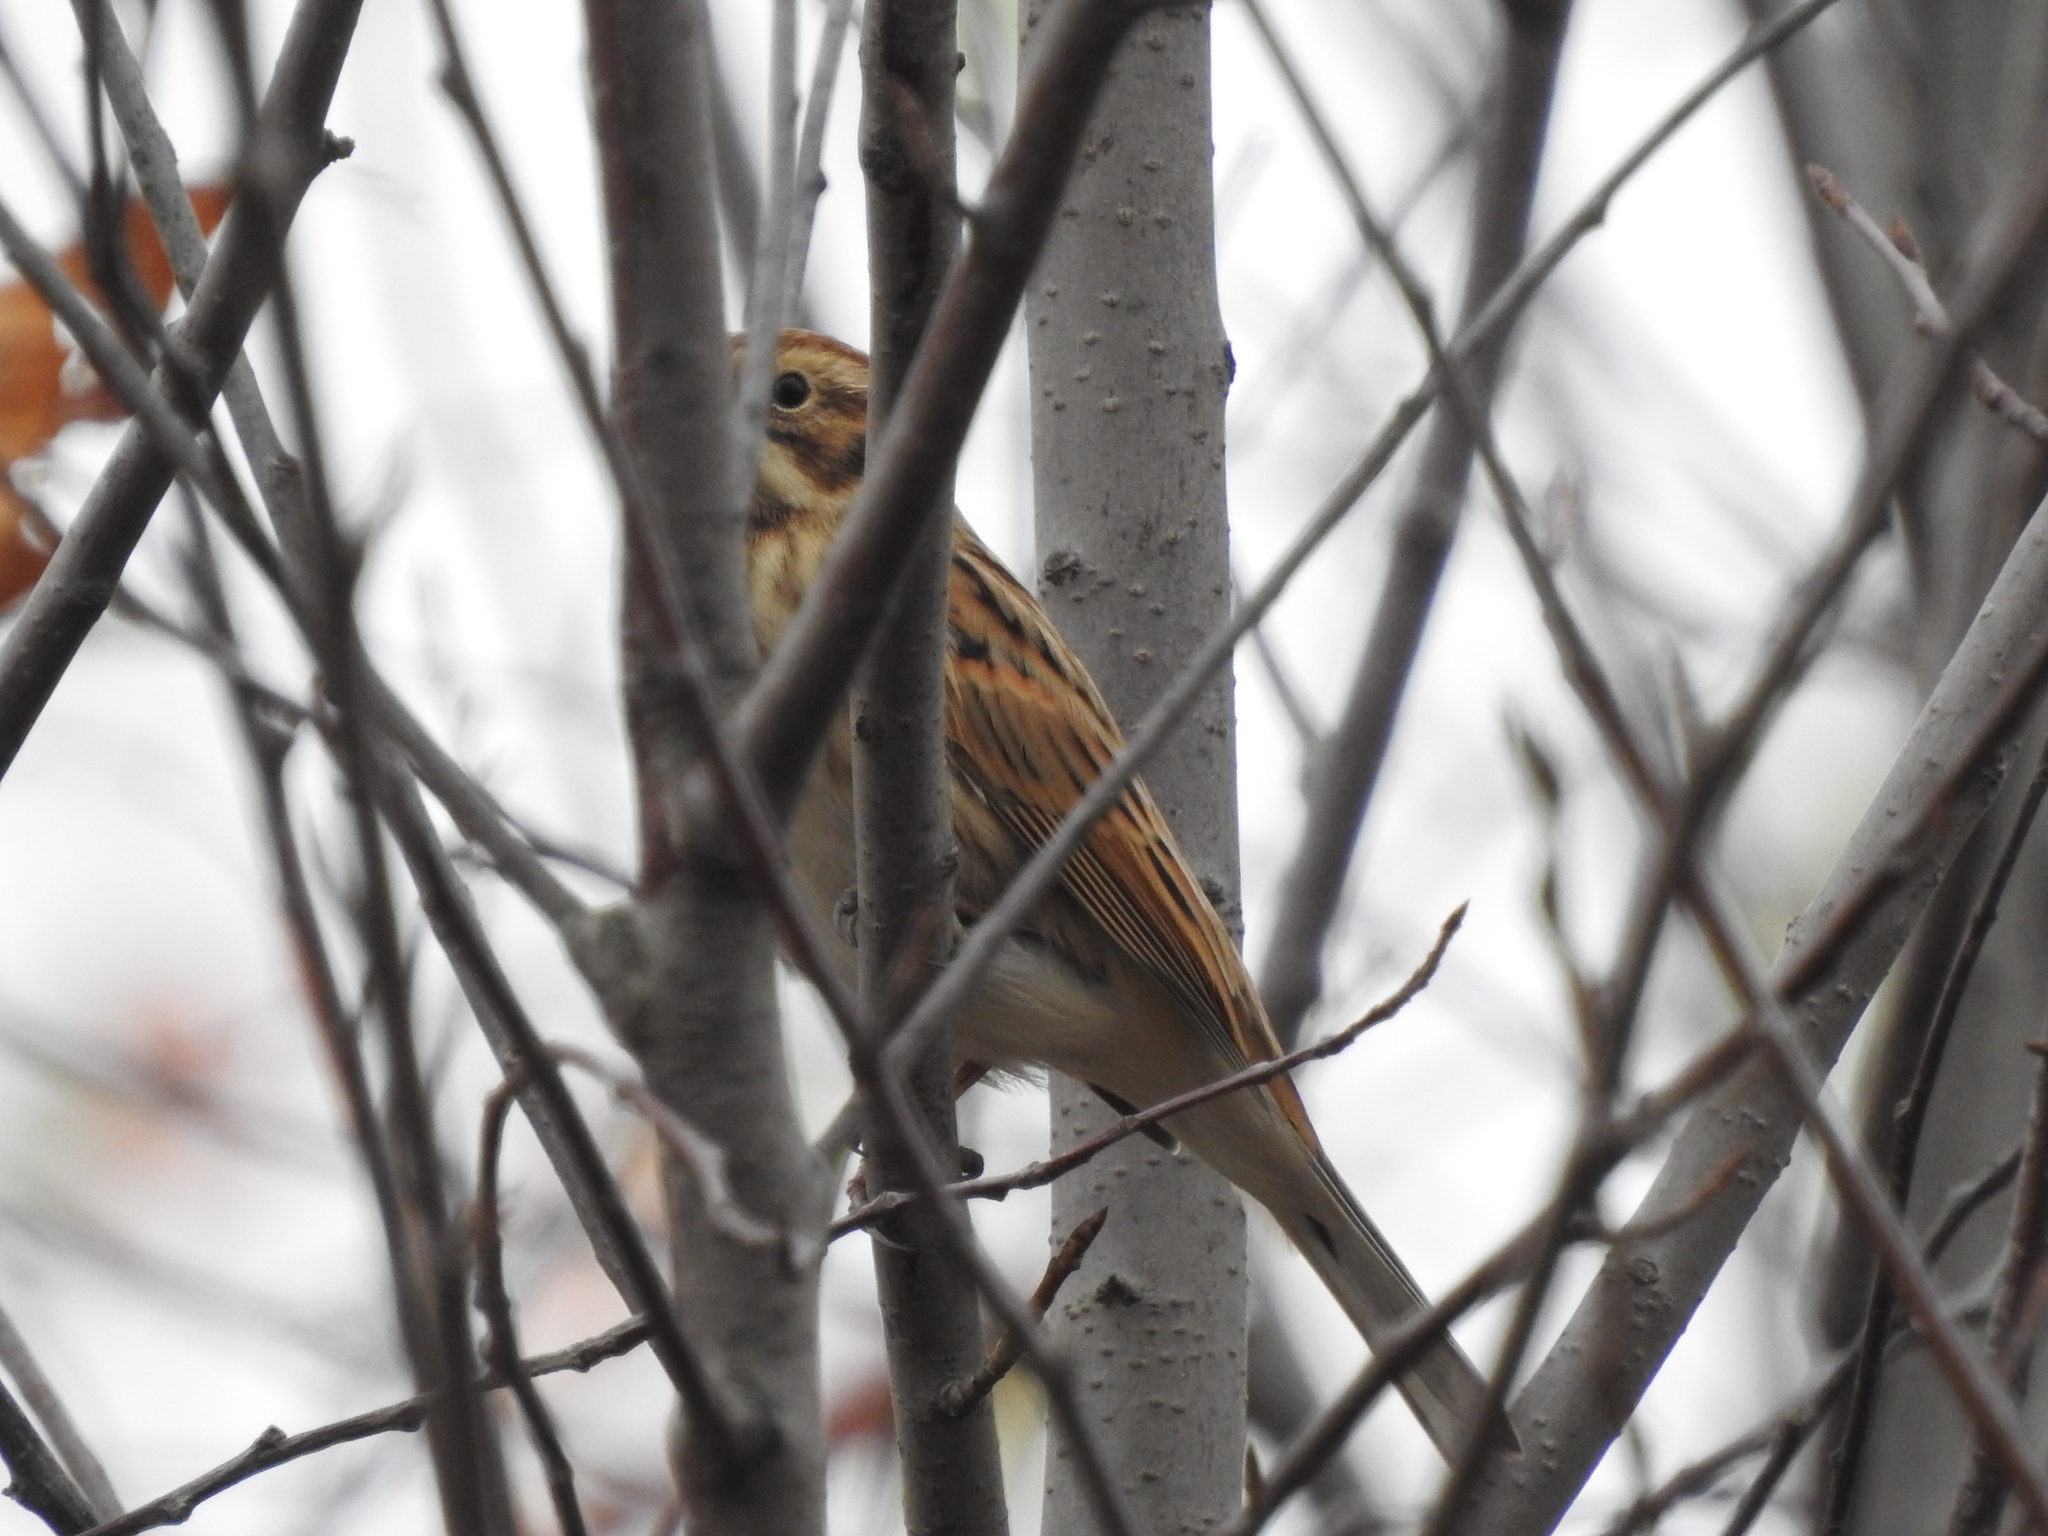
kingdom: Animalia
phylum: Chordata
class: Aves
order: Passeriformes
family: Emberizidae
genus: Emberiza
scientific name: Emberiza schoeniclus
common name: Reed bunting
